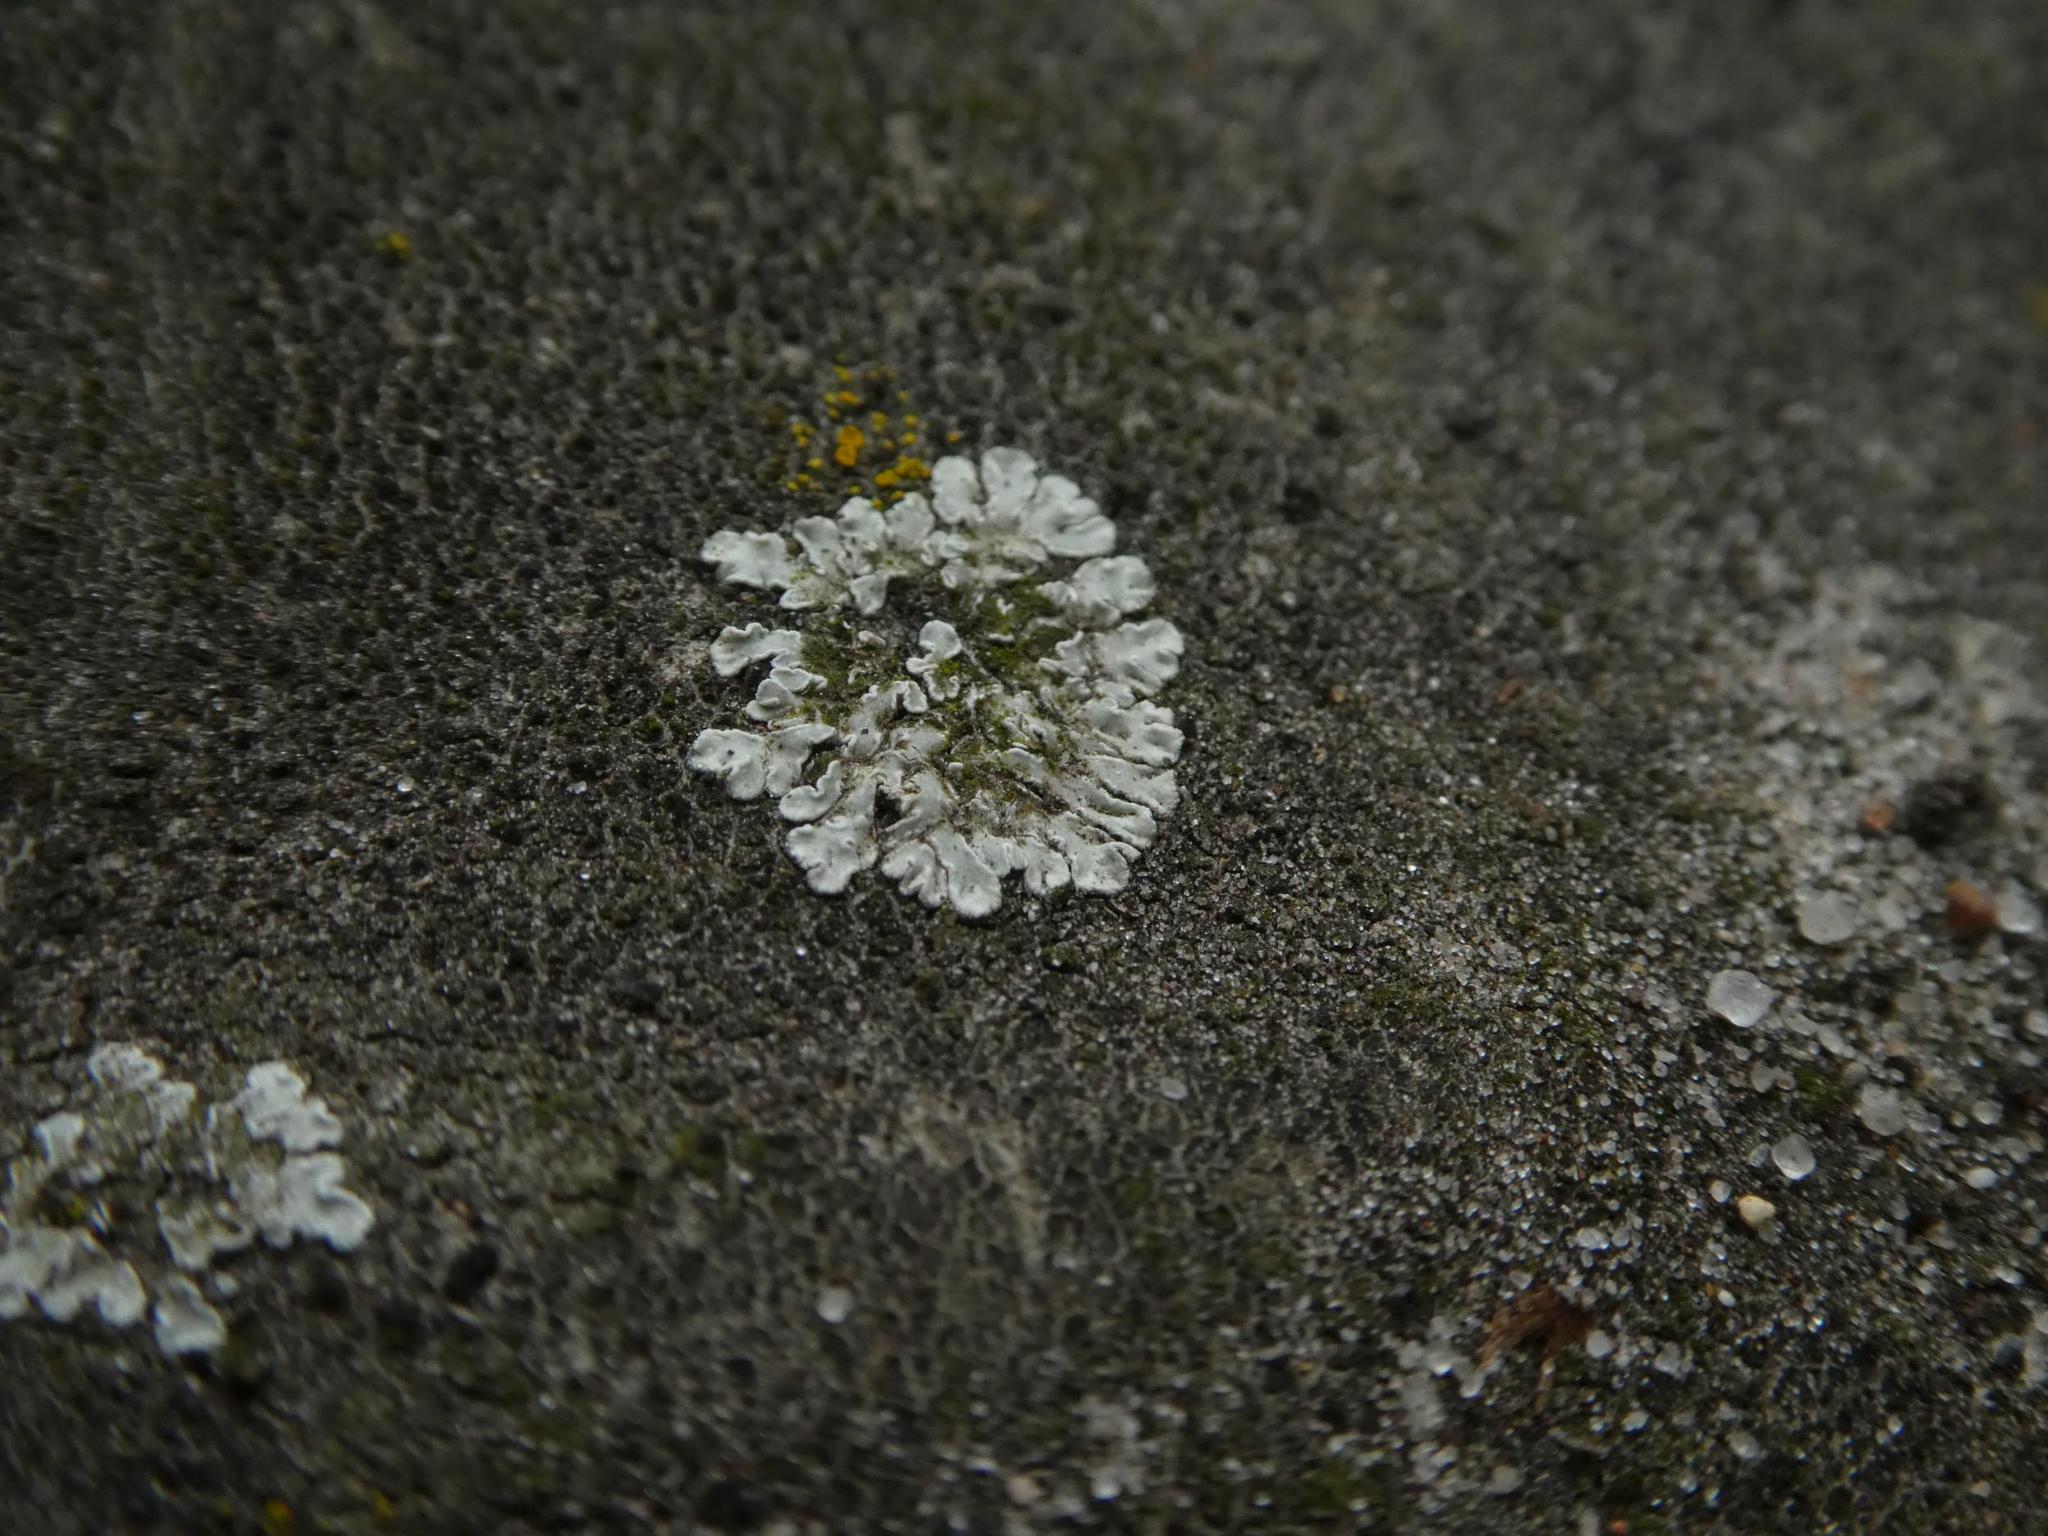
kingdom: Fungi
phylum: Ascomycota
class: Lecanoromycetes
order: Lecanorales
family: Lecanoraceae
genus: Protoparmeliopsis
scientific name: Protoparmeliopsis muralis
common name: Stonewall rim lichen
